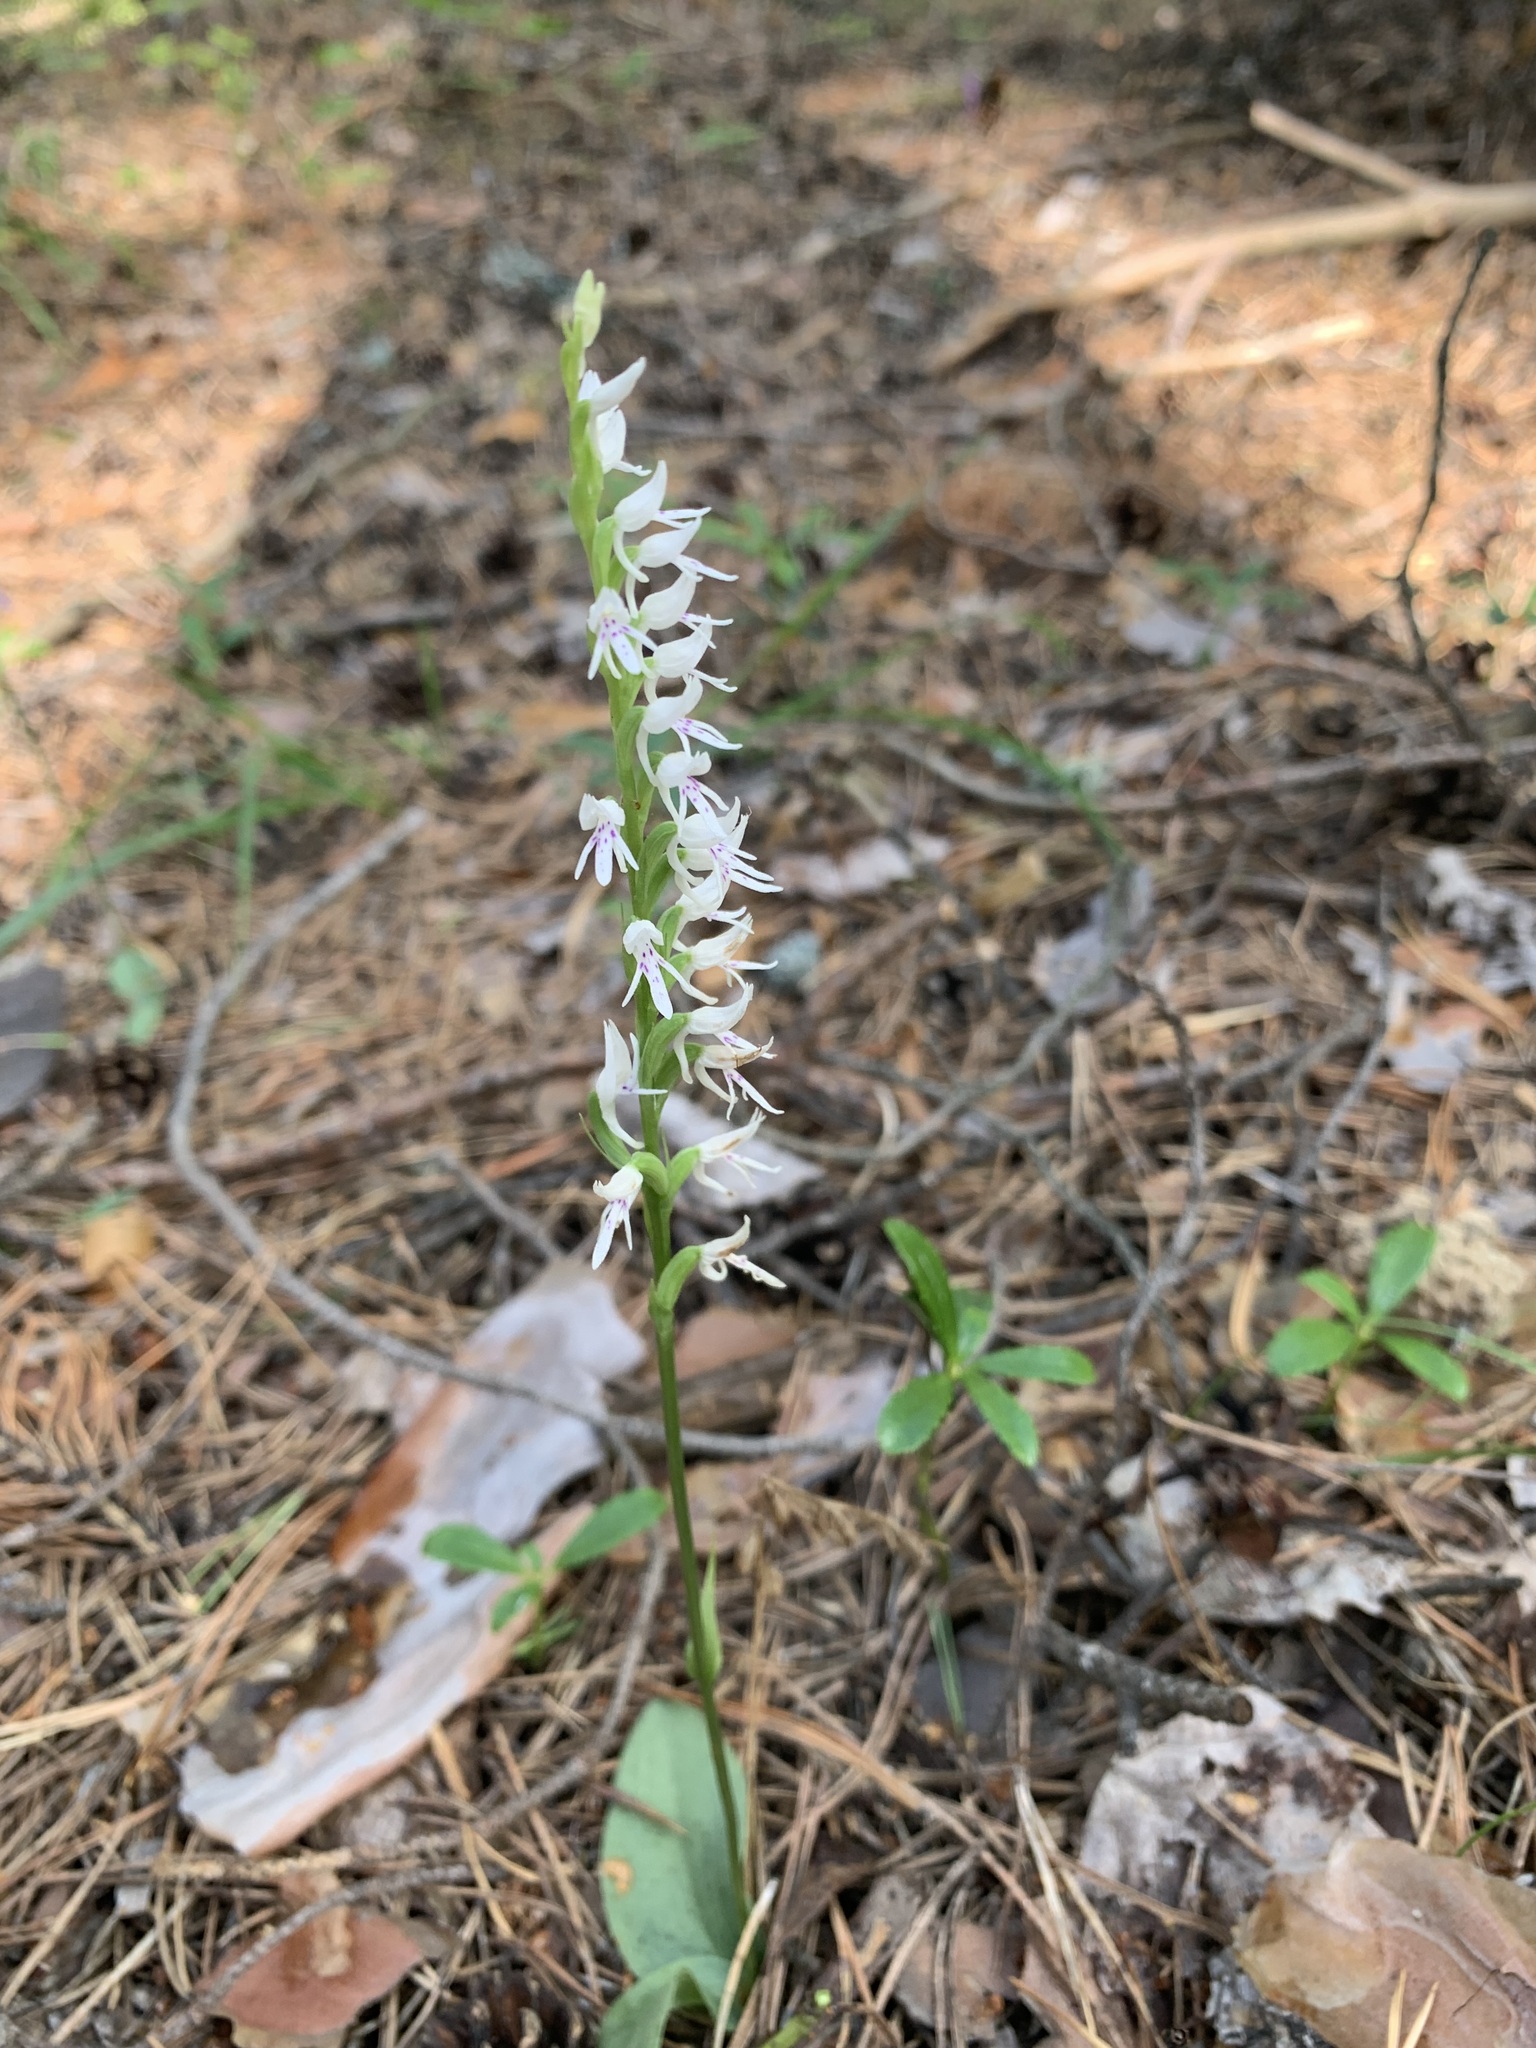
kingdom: Plantae
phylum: Tracheophyta
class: Liliopsida
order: Asparagales
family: Orchidaceae
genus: Hemipilia
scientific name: Hemipilia cucullata
